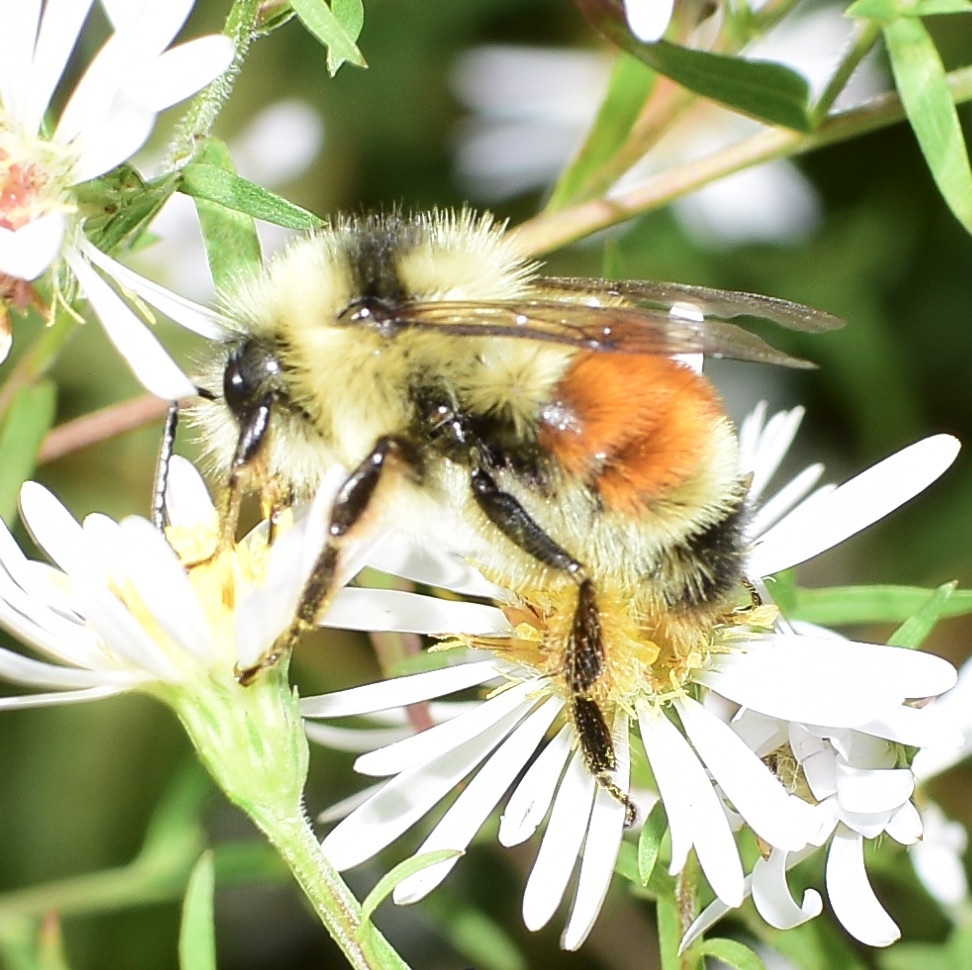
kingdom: Animalia
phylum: Arthropoda
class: Insecta
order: Hymenoptera
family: Apidae
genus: Bombus
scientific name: Bombus ternarius
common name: Tri-colored bumble bee
